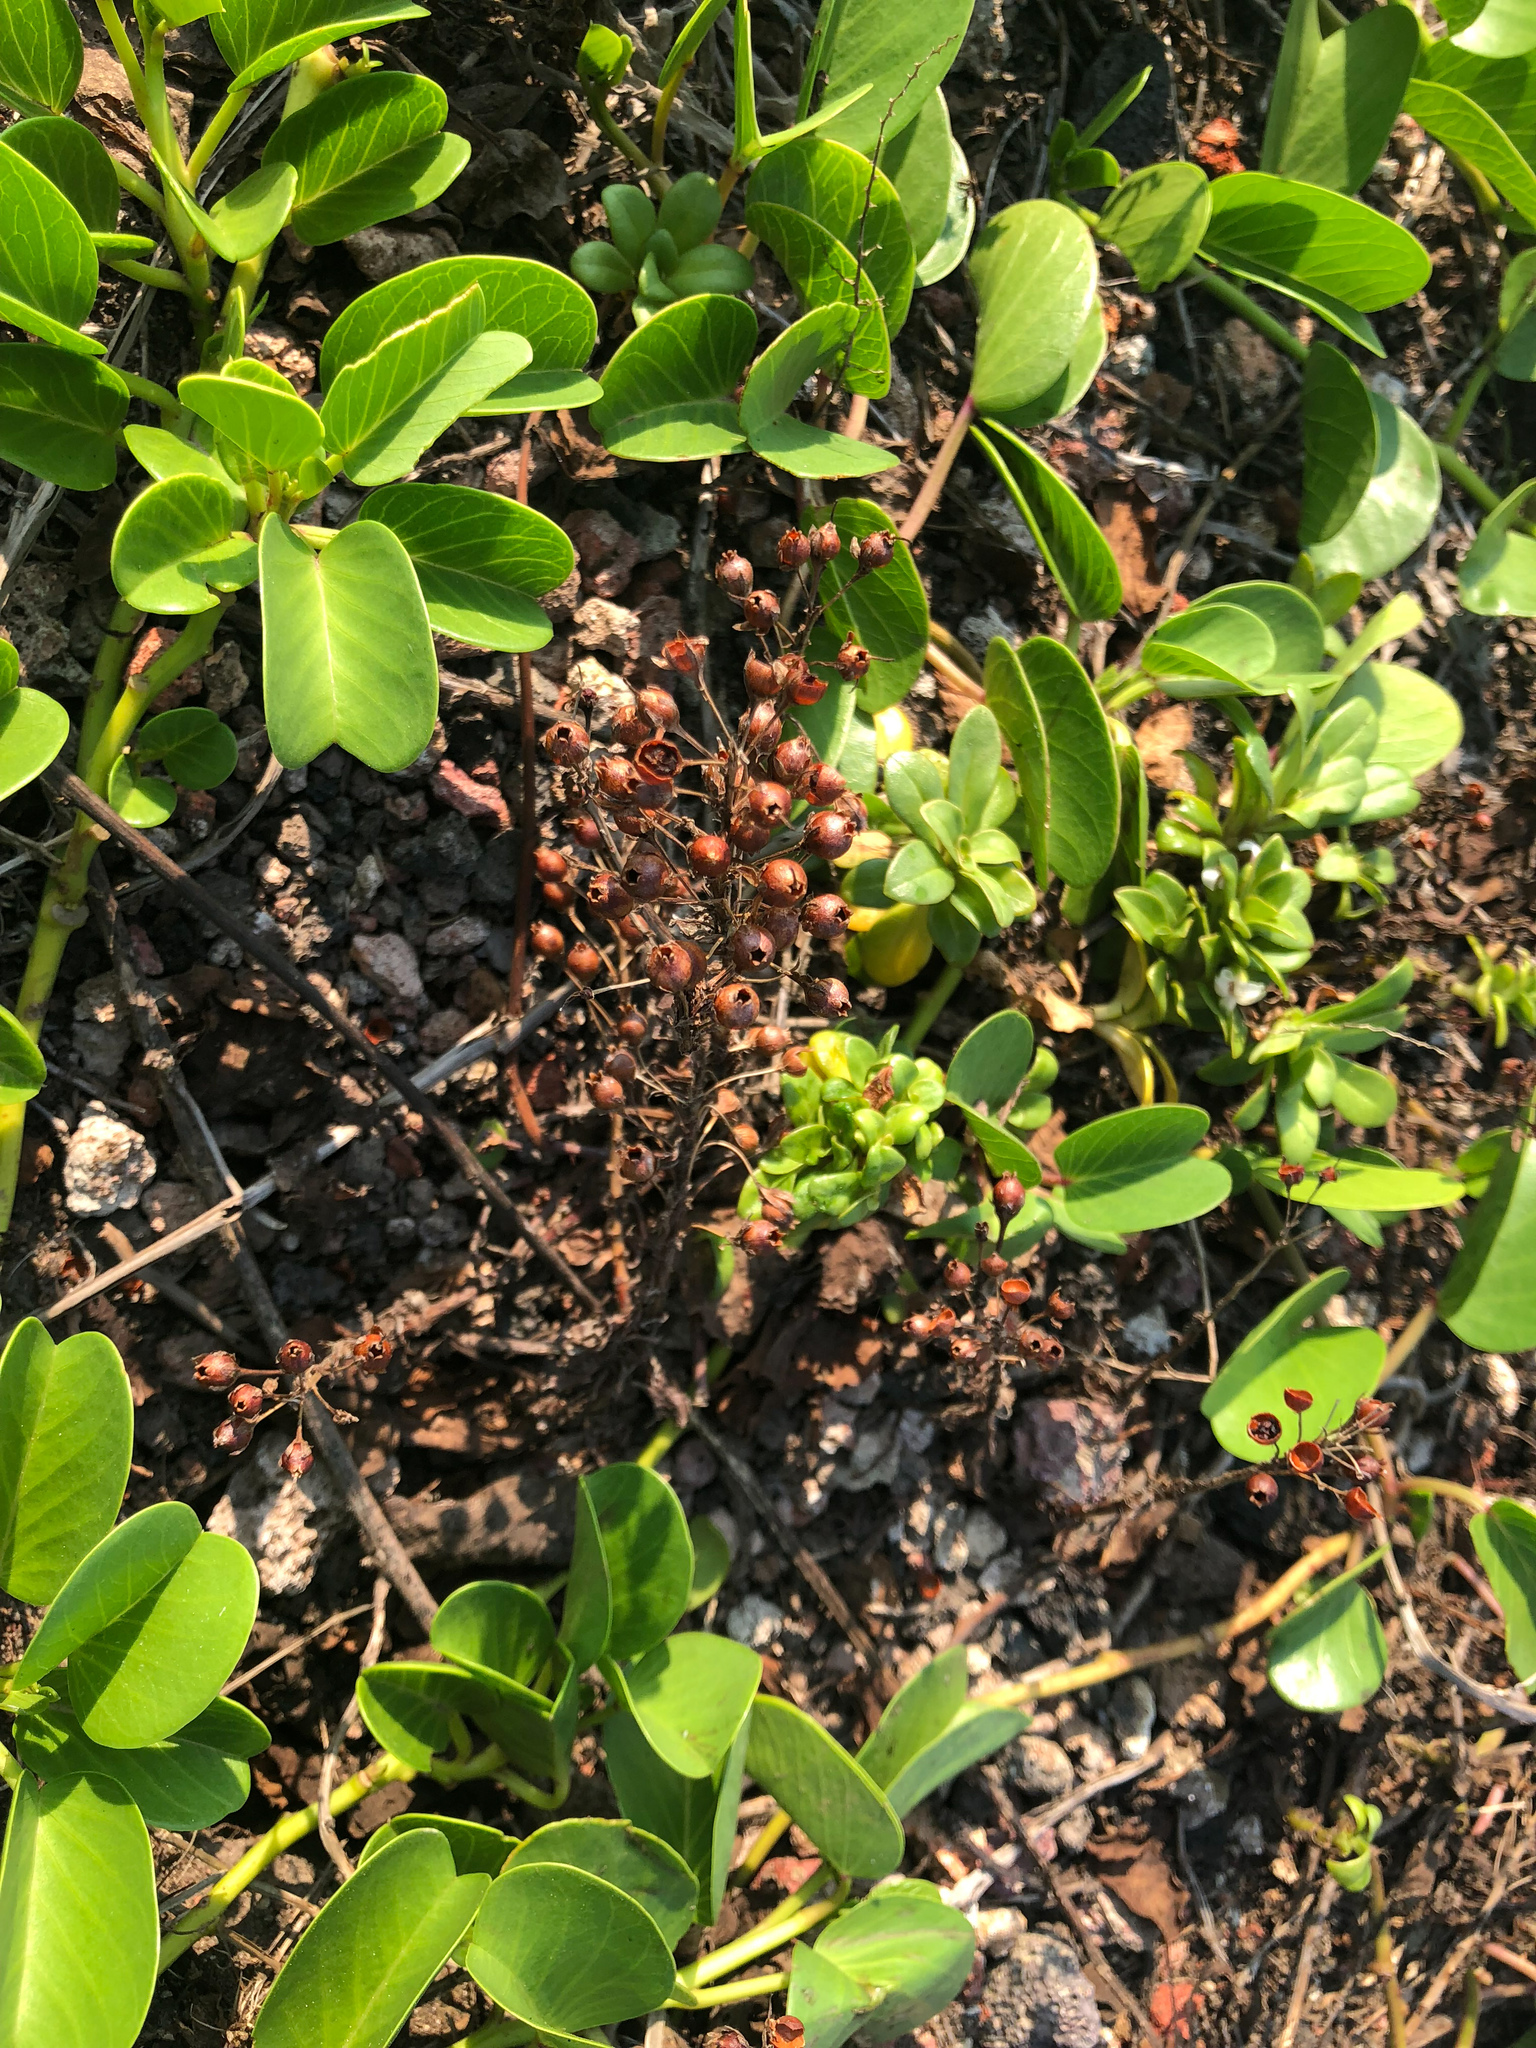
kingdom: Plantae
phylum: Tracheophyta
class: Magnoliopsida
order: Ericales
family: Primulaceae
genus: Lysimachia
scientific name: Lysimachia mauritiana
